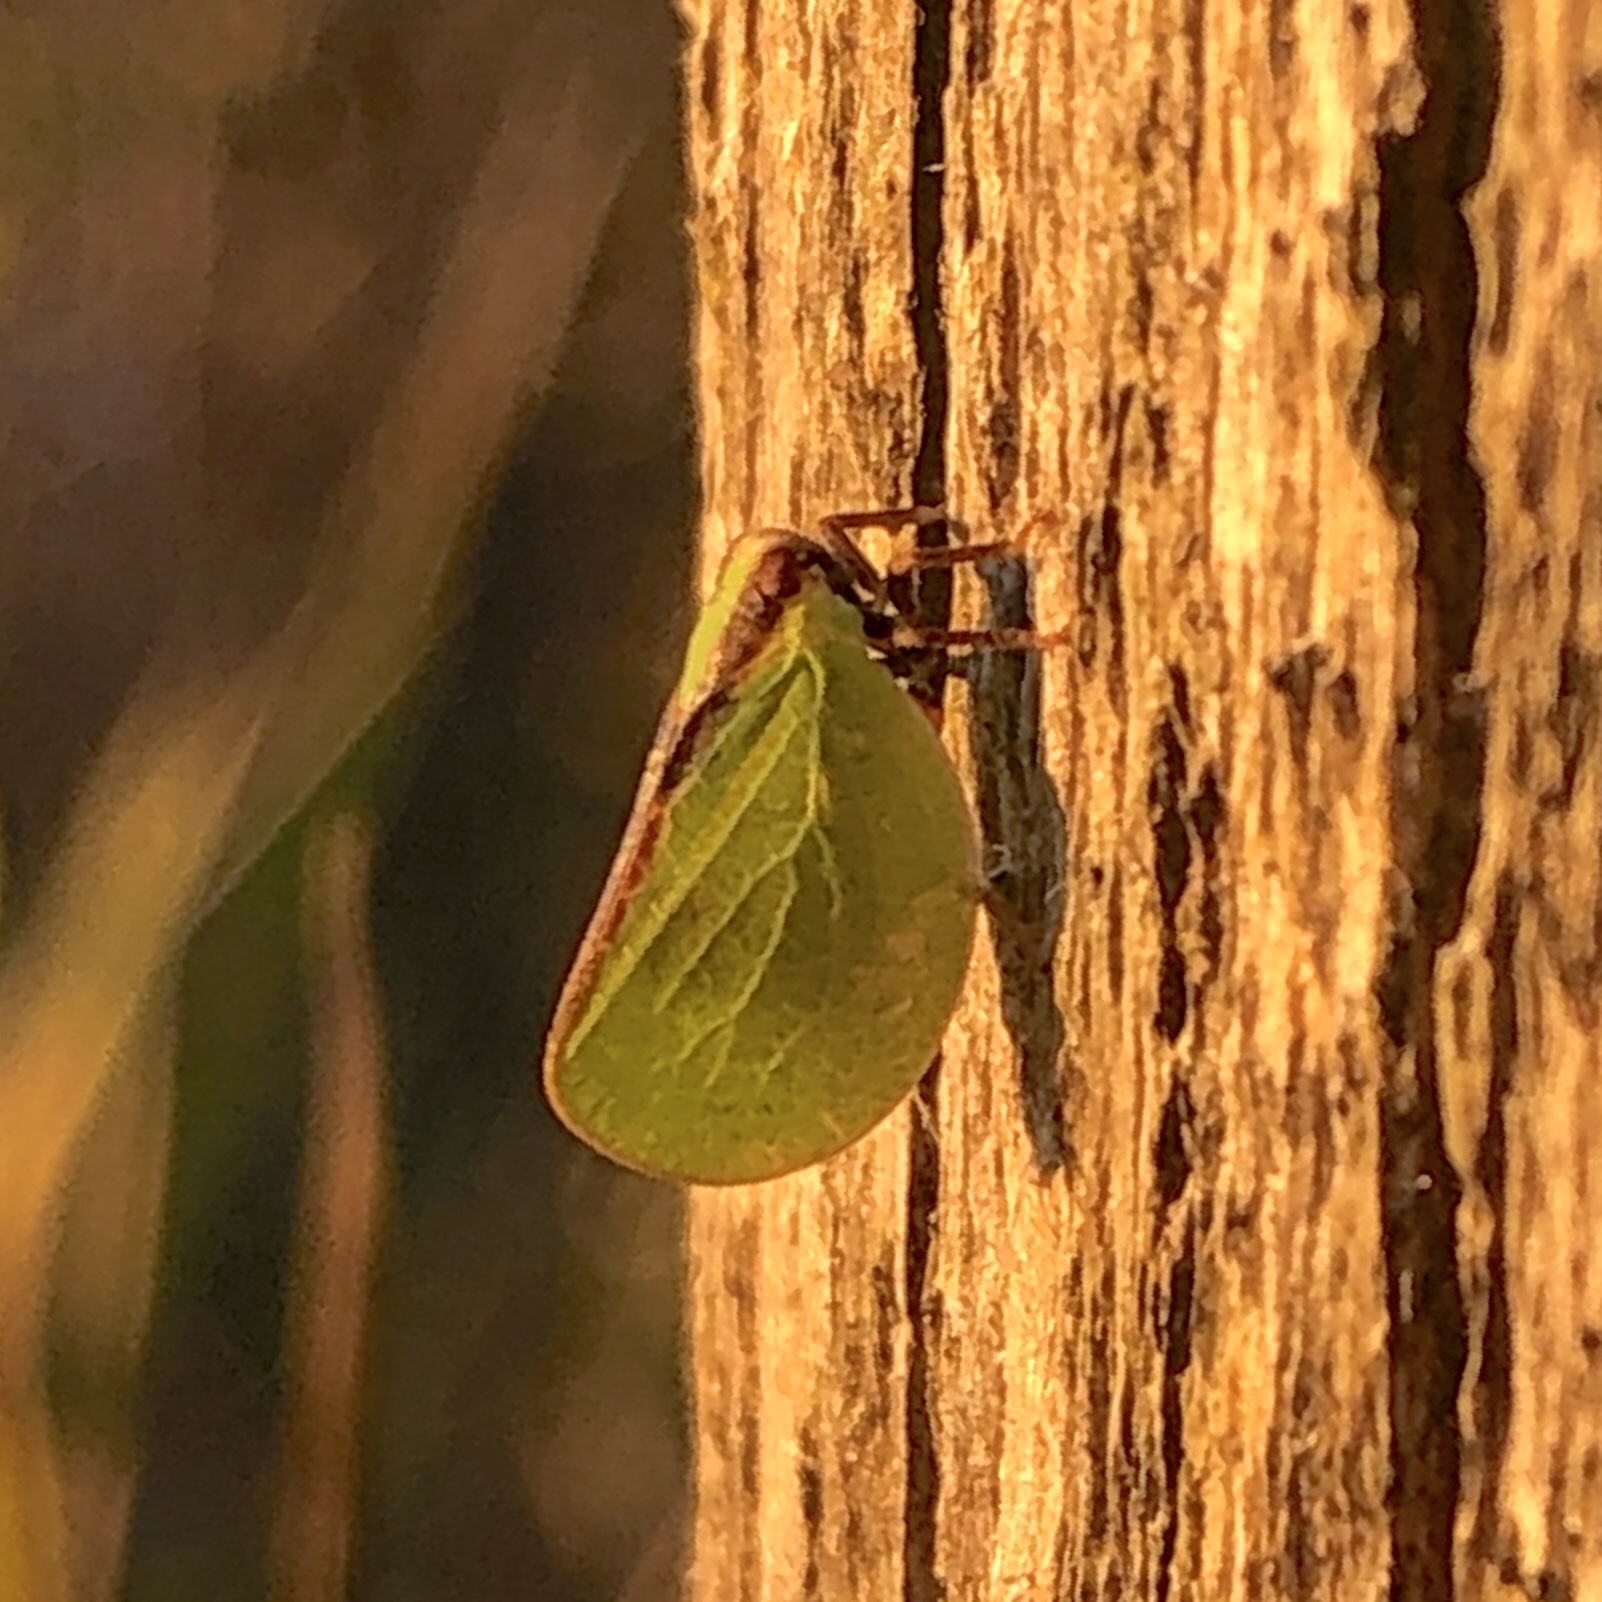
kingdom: Animalia
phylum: Arthropoda
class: Insecta
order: Hemiptera
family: Acanaloniidae
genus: Acanalonia
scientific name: Acanalonia bivittata
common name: Two-striped planthopper
